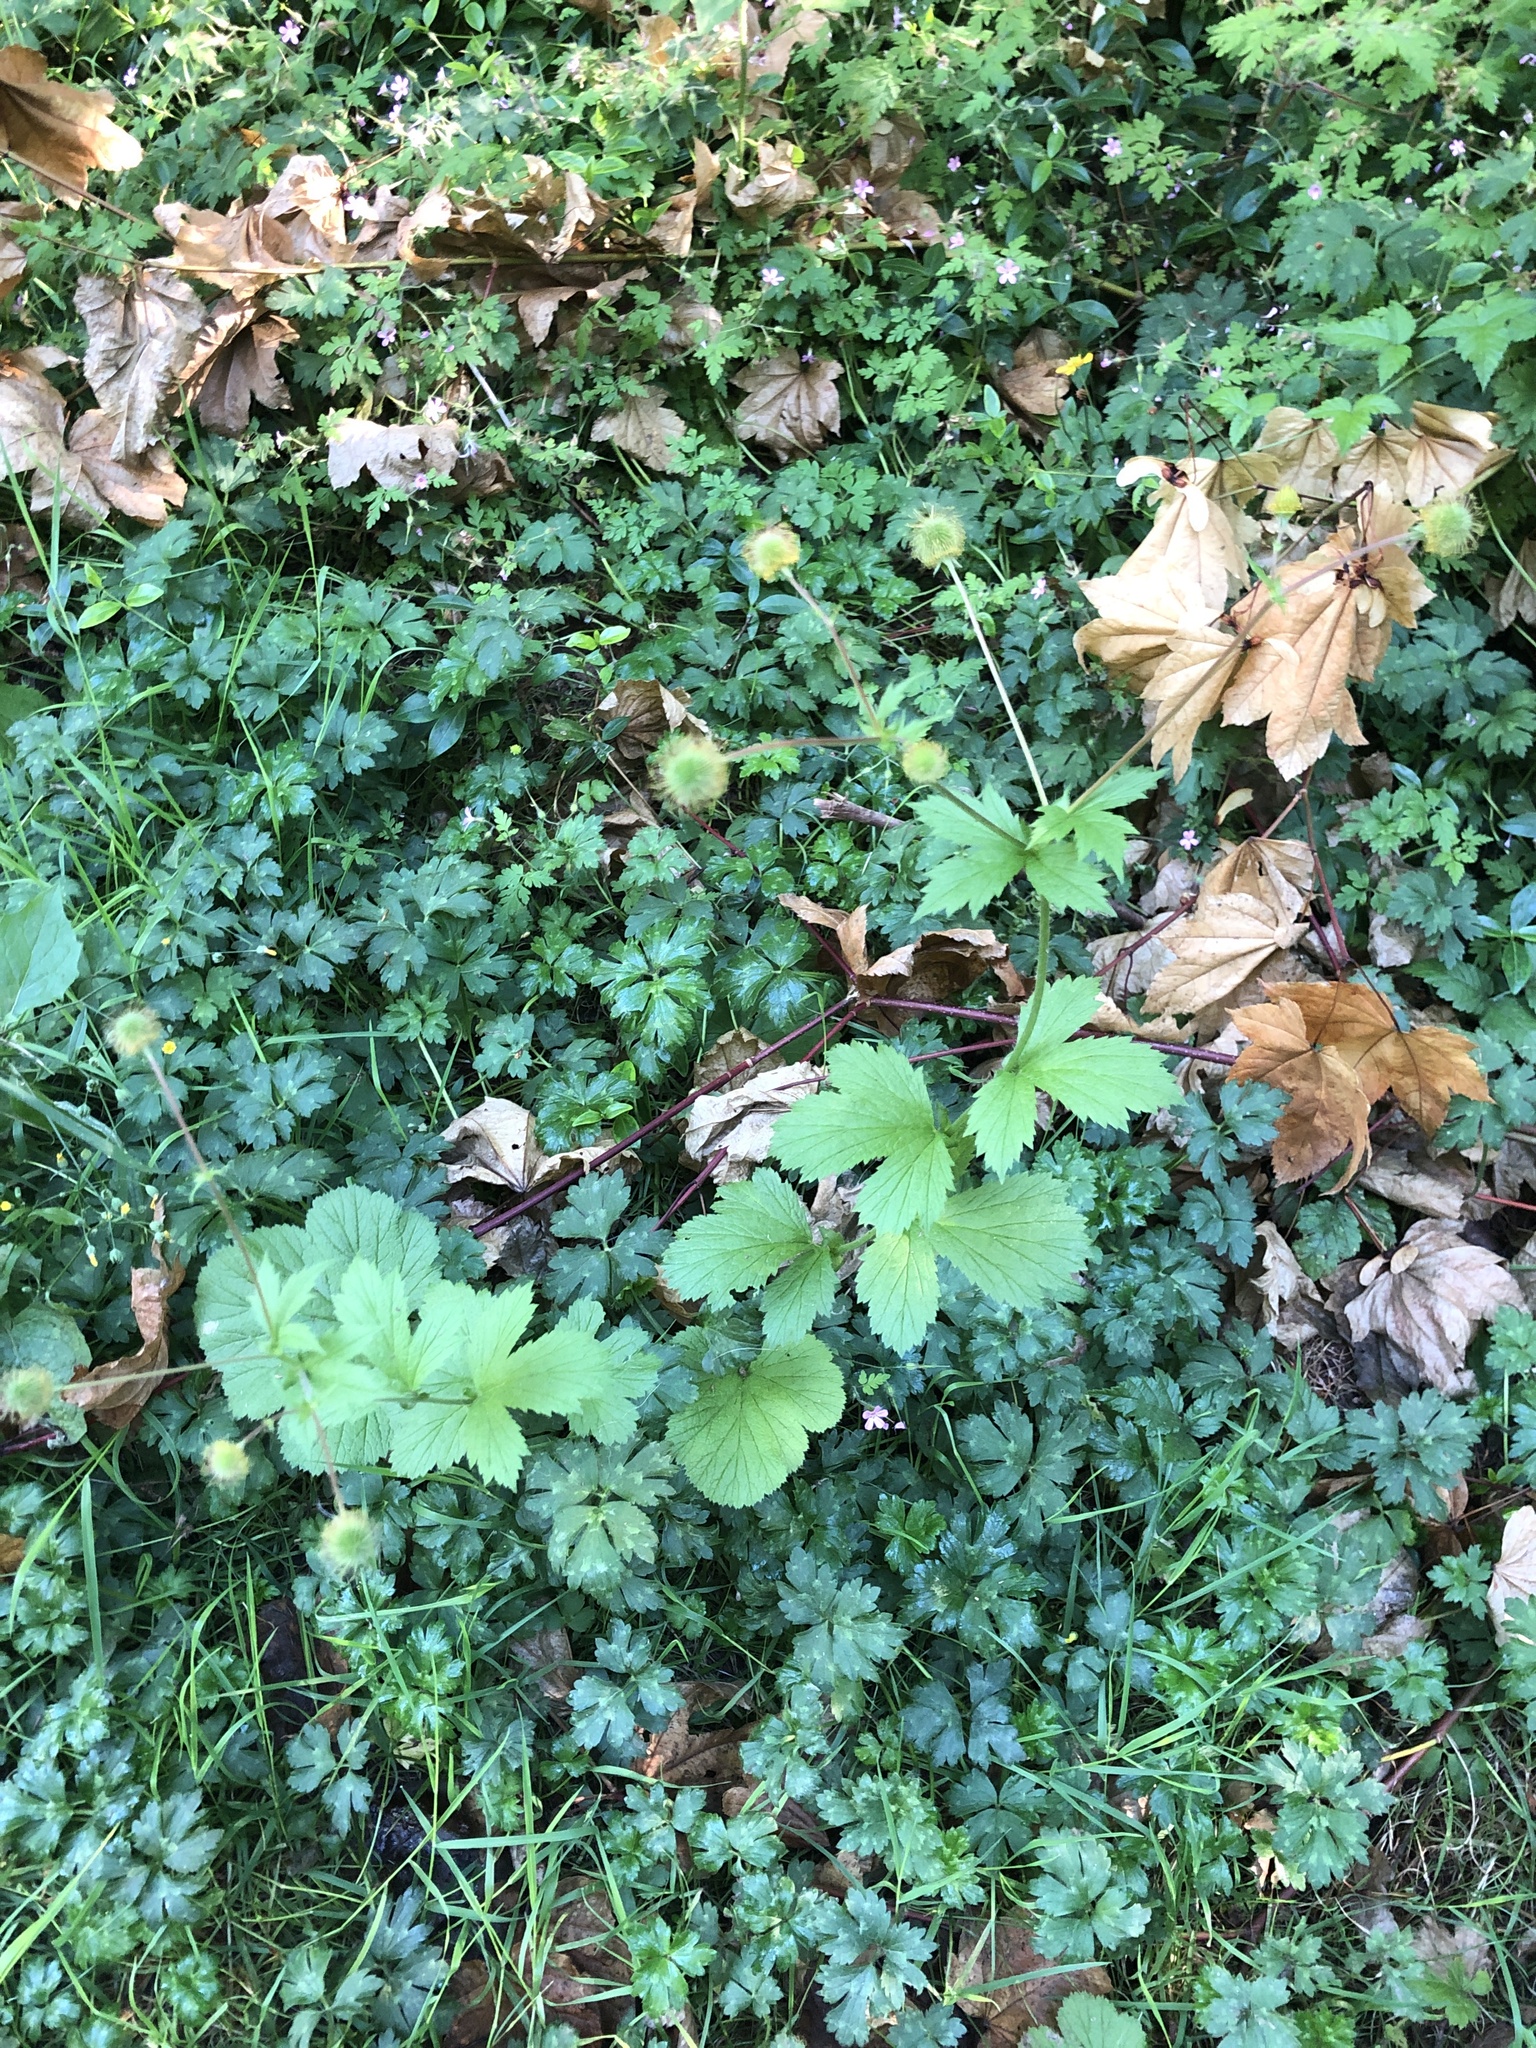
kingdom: Plantae
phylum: Tracheophyta
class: Magnoliopsida
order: Rosales
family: Rosaceae
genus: Geum
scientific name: Geum macrophyllum
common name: Large-leaved avens
